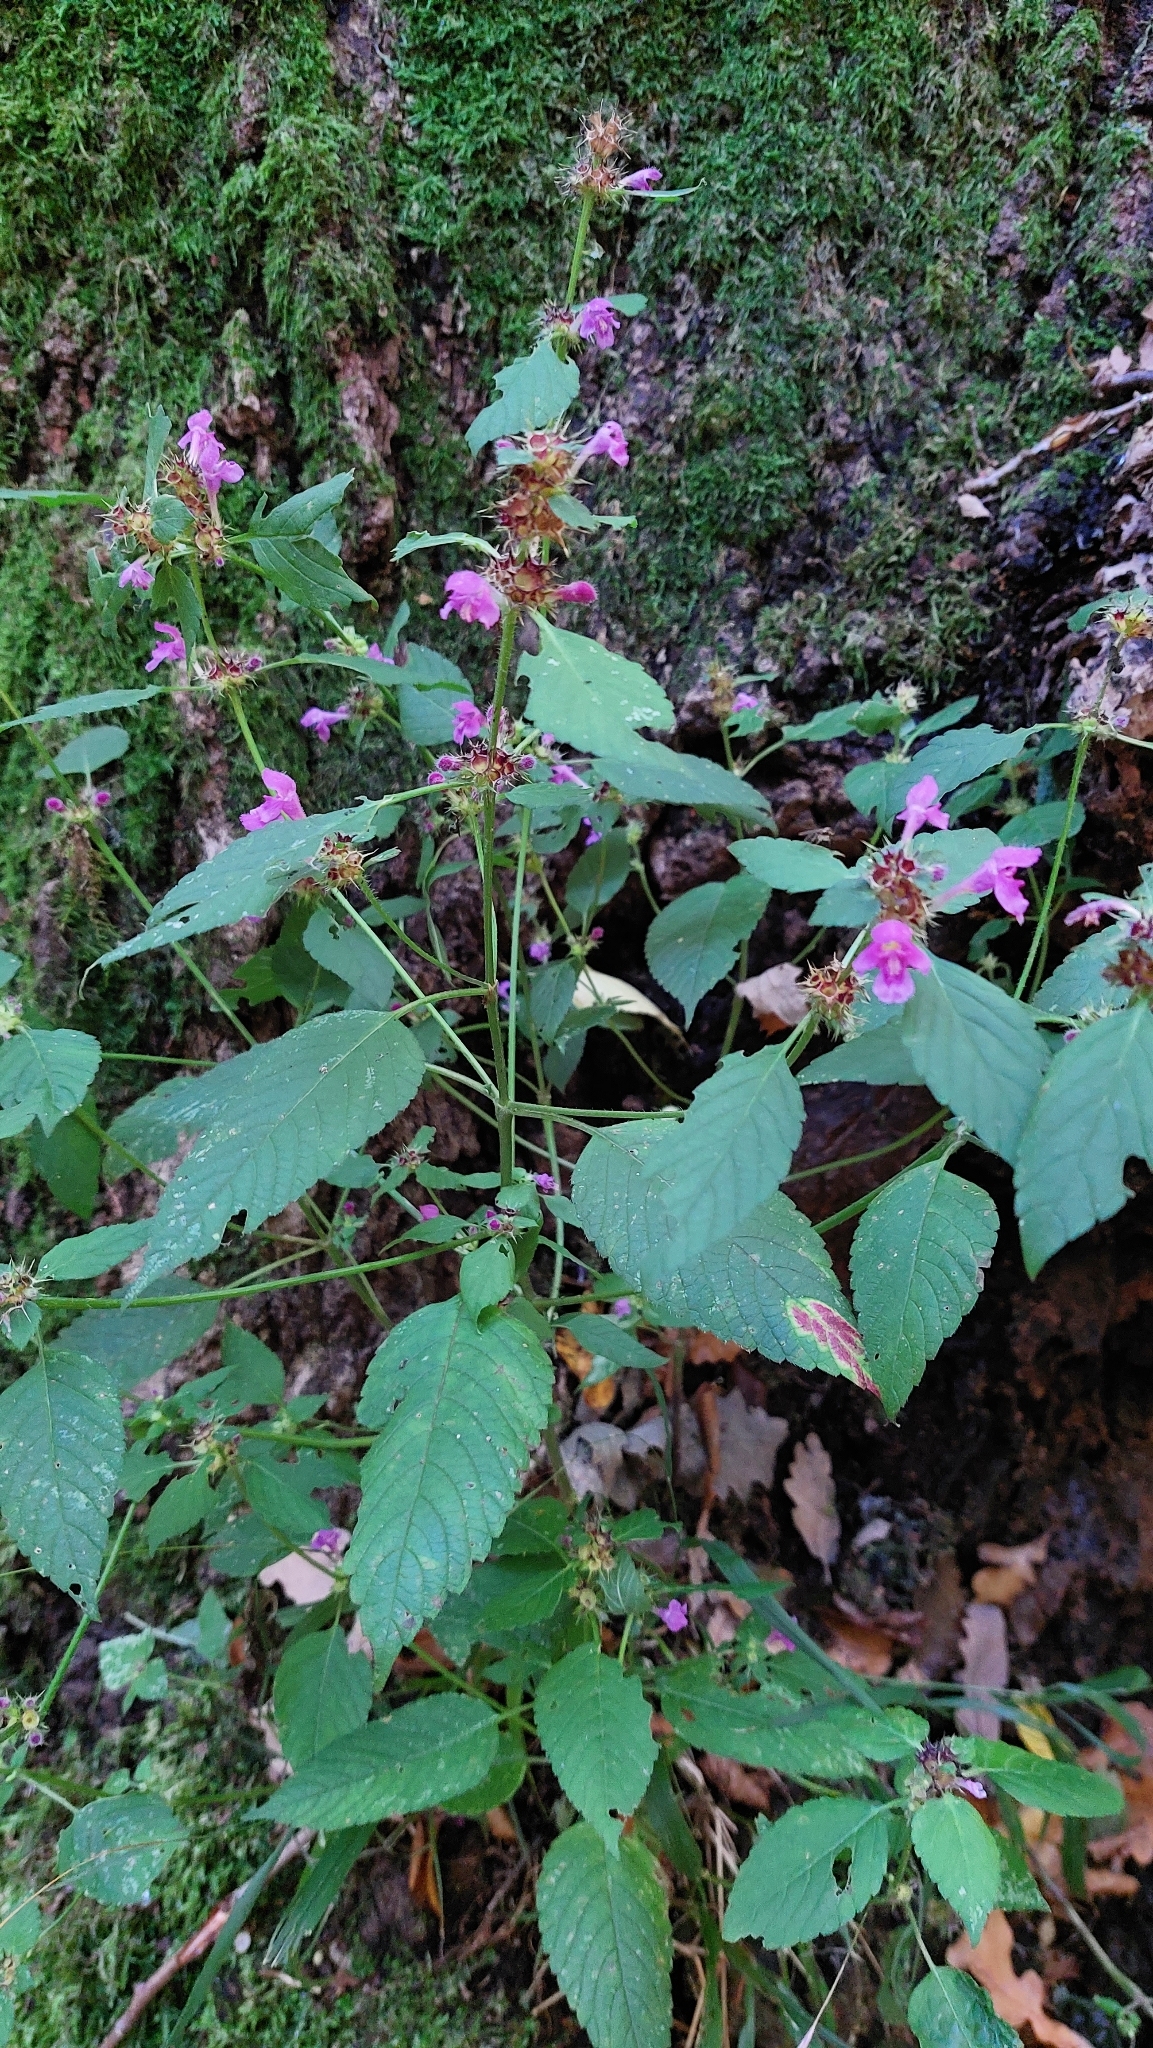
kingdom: Plantae
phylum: Tracheophyta
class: Magnoliopsida
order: Lamiales
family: Lamiaceae
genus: Galeopsis
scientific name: Galeopsis pubescens
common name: Downy hemp-nettle
